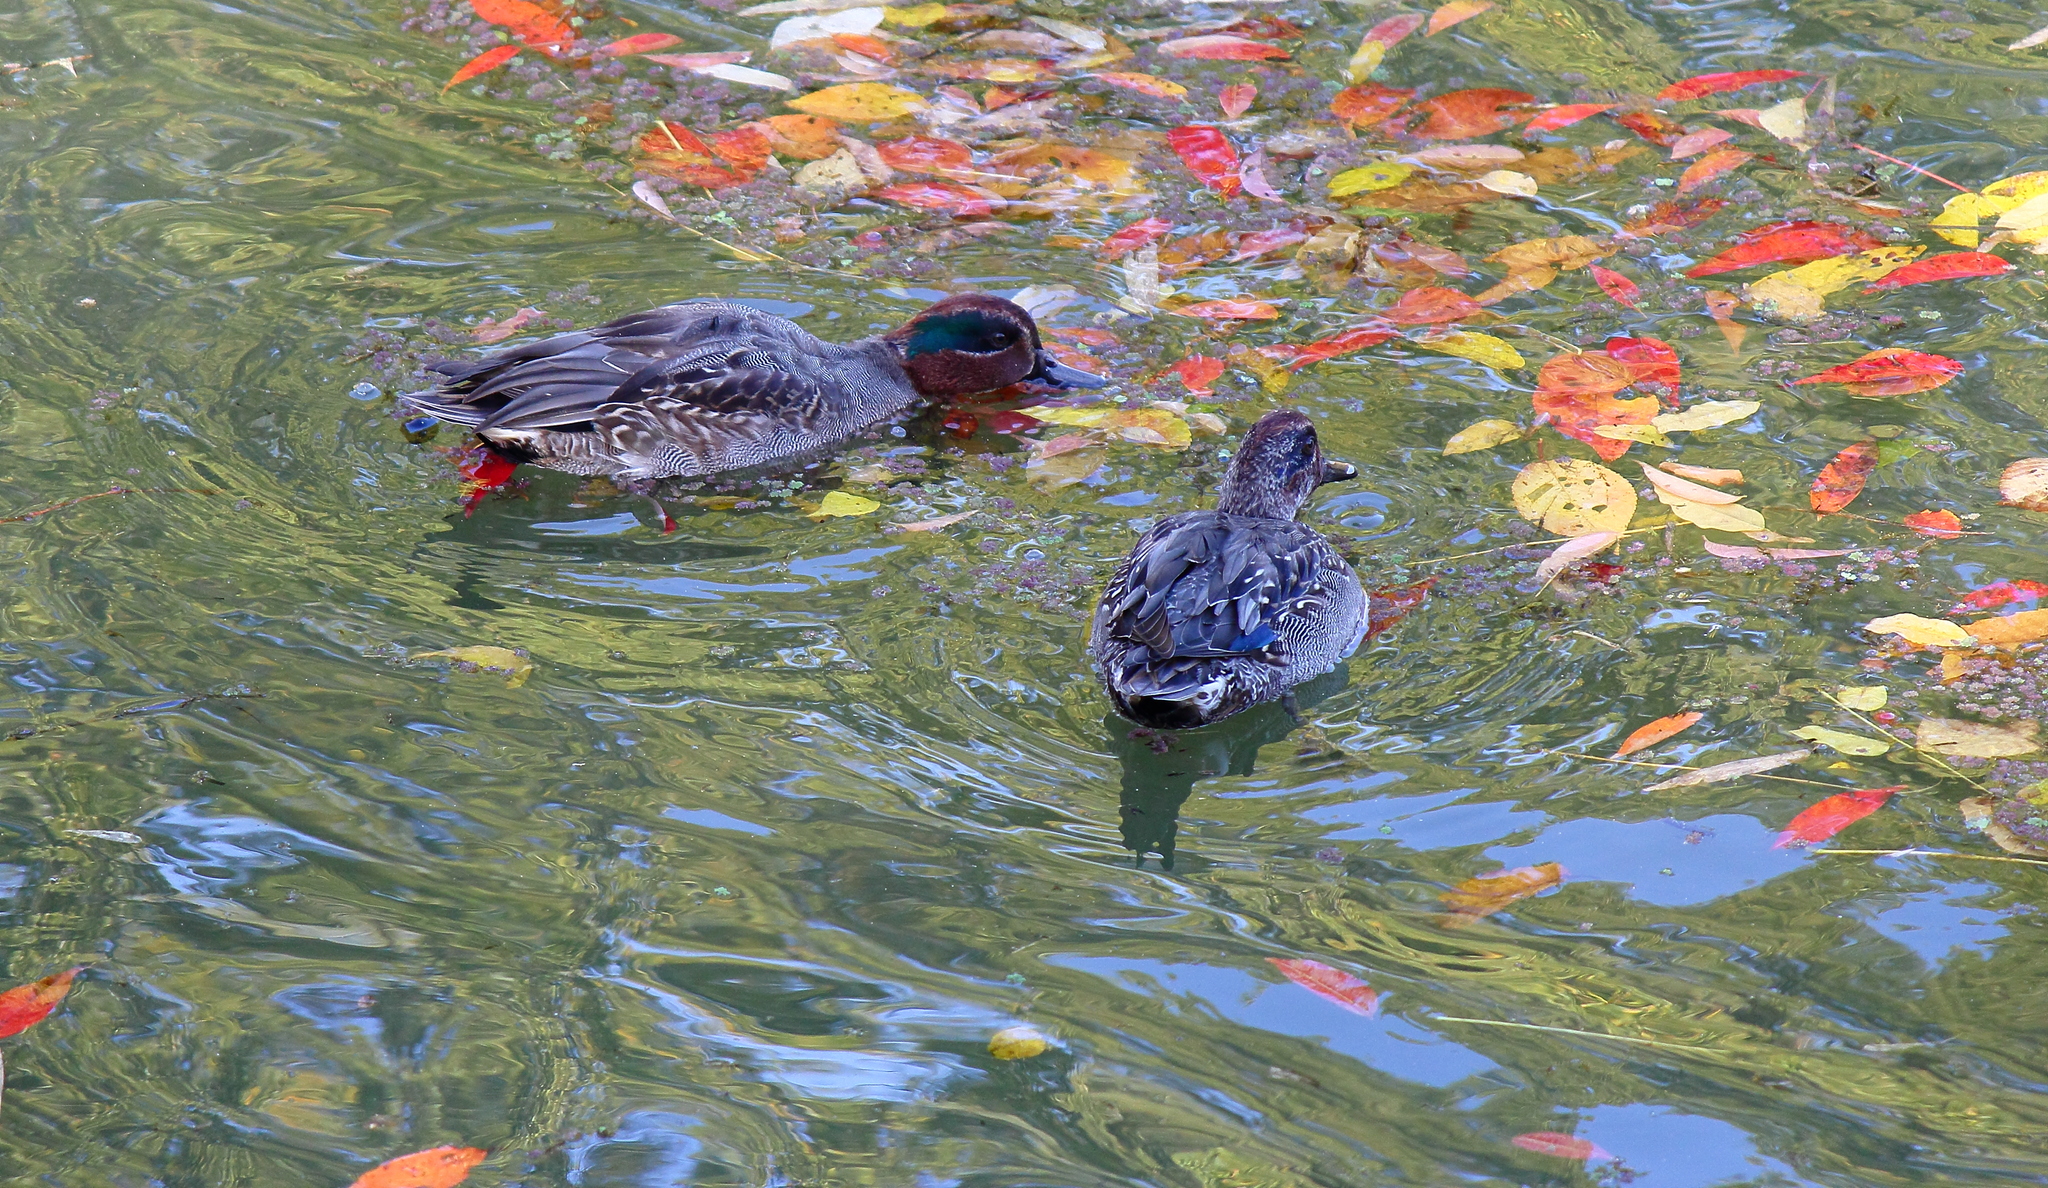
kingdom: Animalia
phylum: Chordata
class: Aves
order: Anseriformes
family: Anatidae
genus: Anas
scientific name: Anas crecca
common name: Eurasian teal
